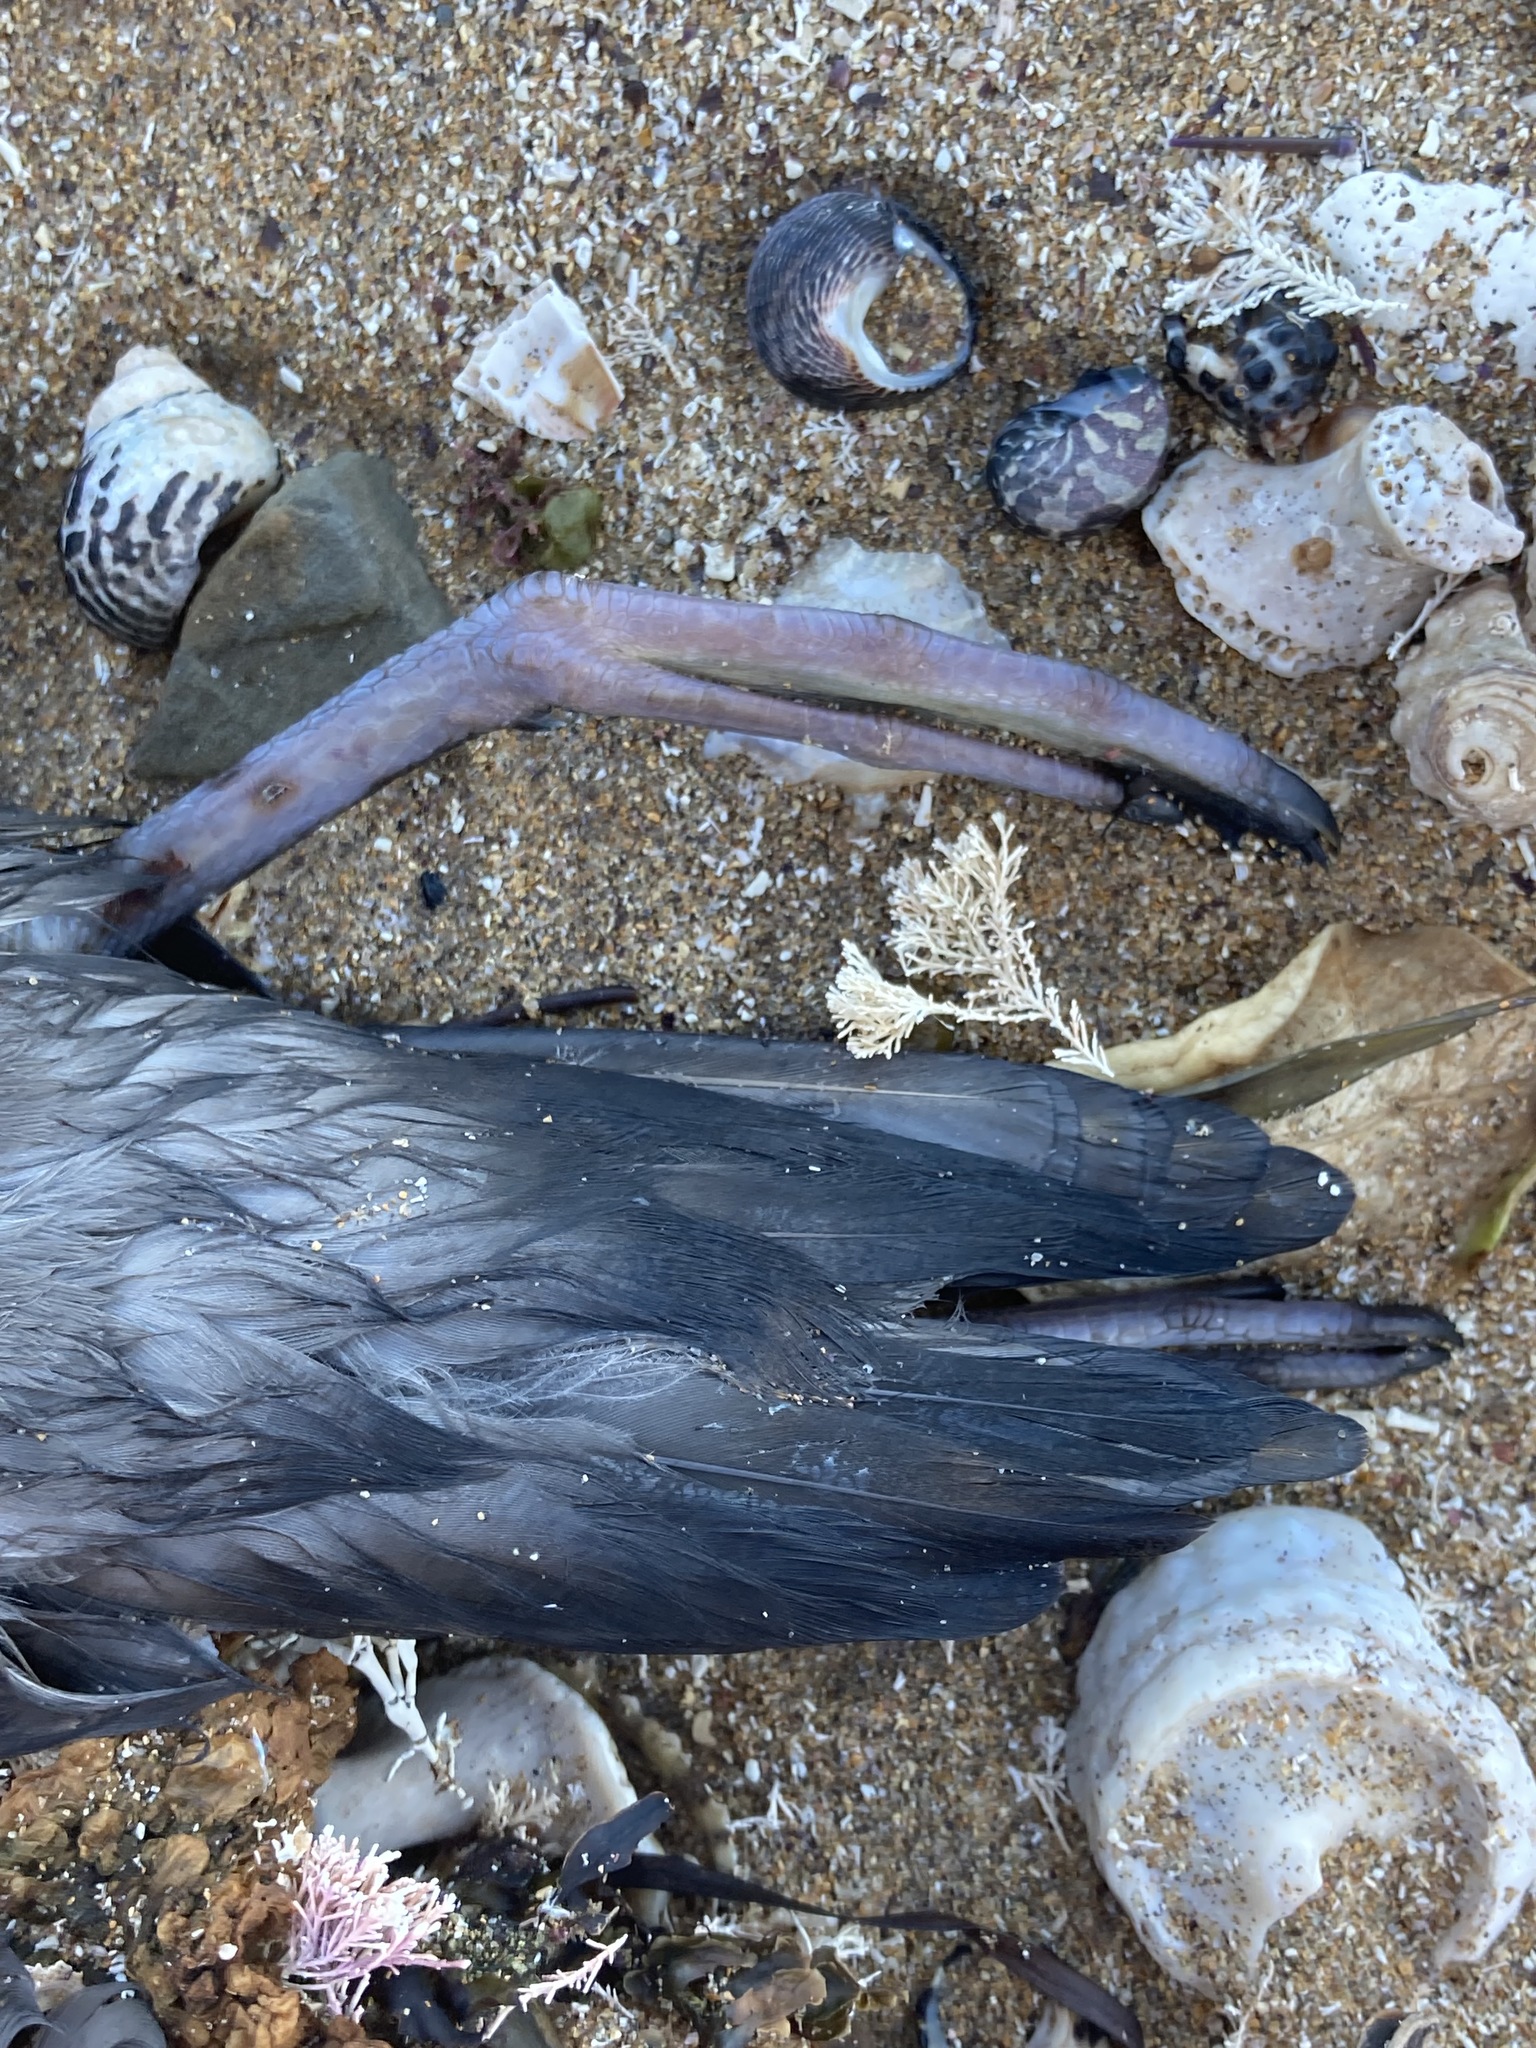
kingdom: Animalia
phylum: Chordata
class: Aves
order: Procellariiformes
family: Procellariidae
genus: Puffinus
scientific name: Puffinus tenuirostris
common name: Short-tailed shearwater
